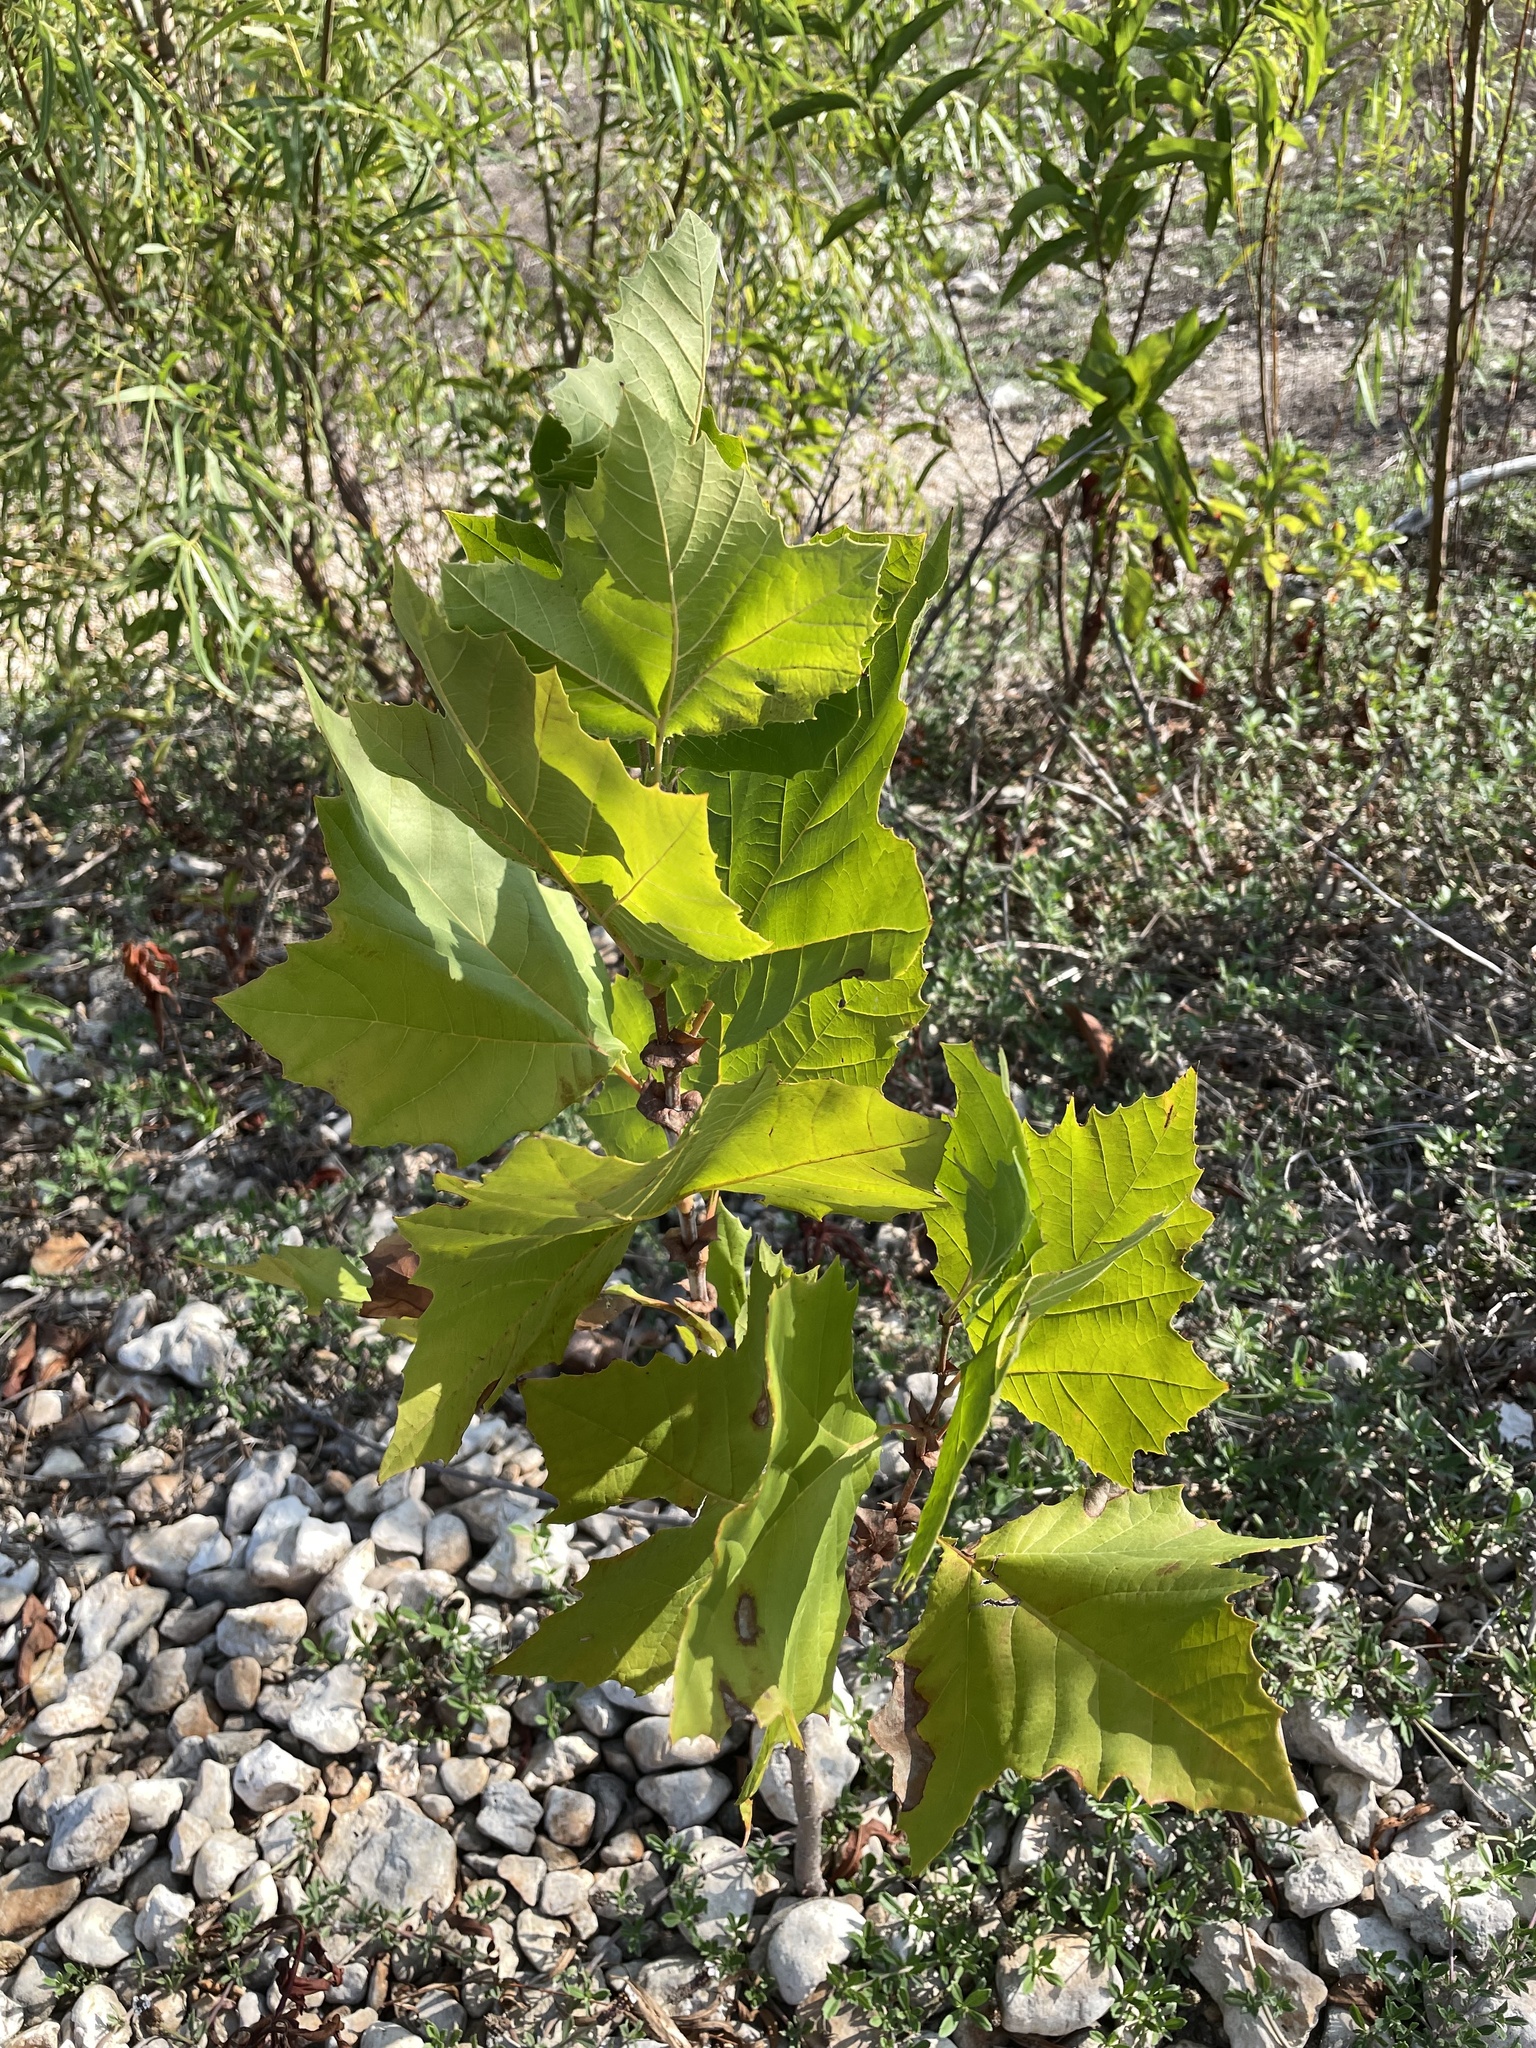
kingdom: Plantae
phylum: Tracheophyta
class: Magnoliopsida
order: Proteales
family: Platanaceae
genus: Platanus
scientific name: Platanus occidentalis
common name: American sycamore
